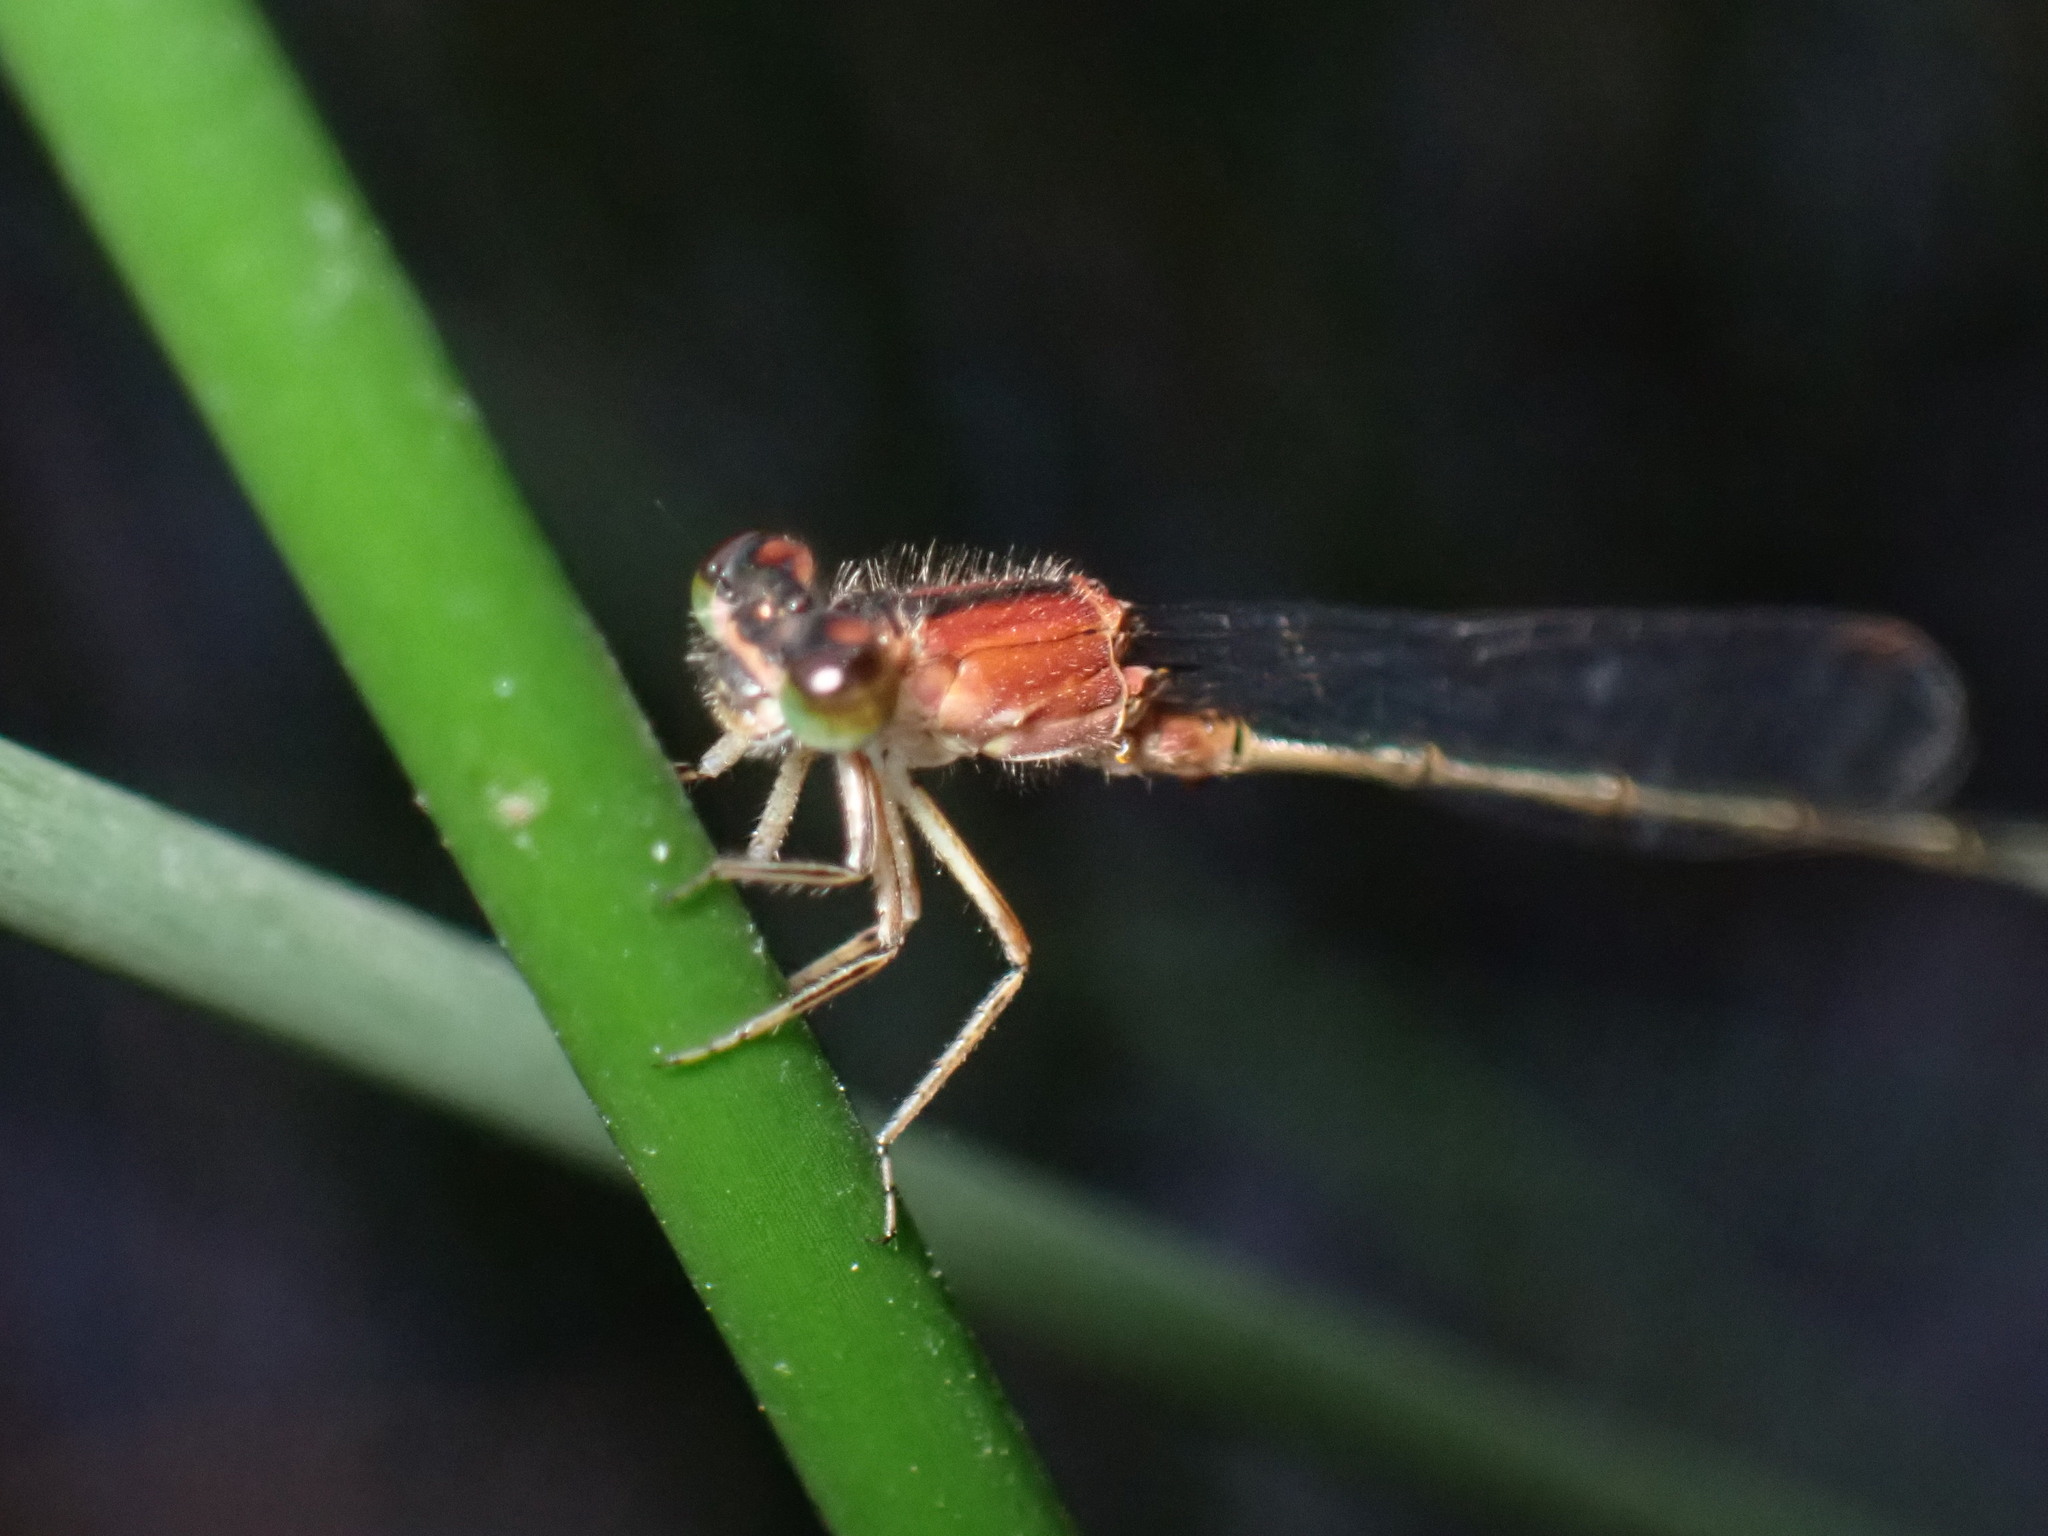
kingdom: Animalia
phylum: Arthropoda
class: Insecta
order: Odonata
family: Coenagrionidae
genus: Ischnura
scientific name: Ischnura graellsii
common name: Iberian bluetail
